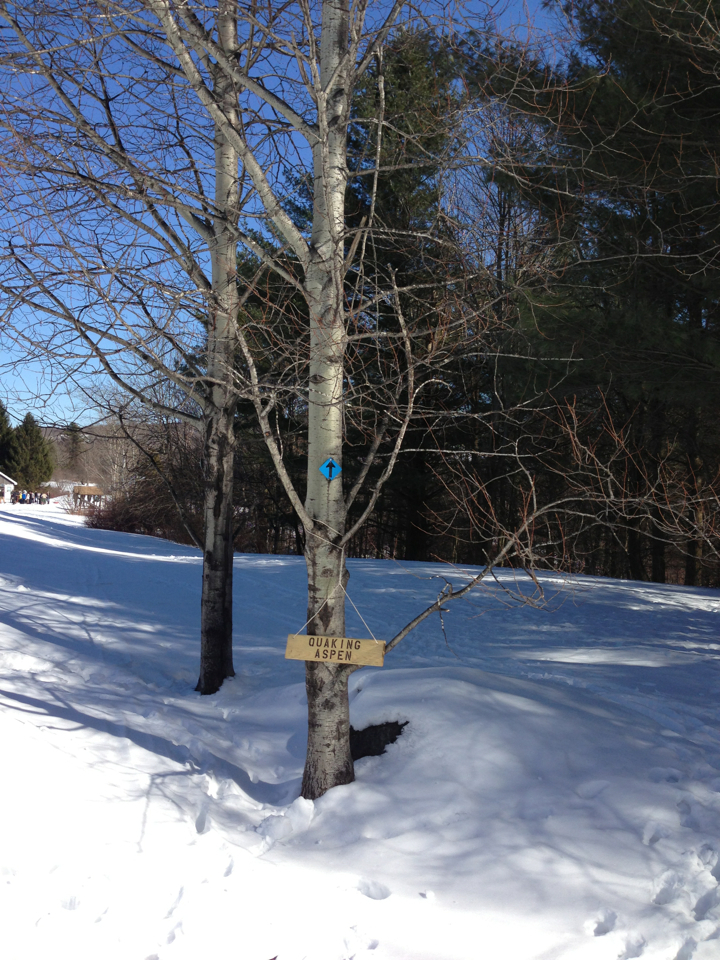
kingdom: Plantae
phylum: Tracheophyta
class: Magnoliopsida
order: Malpighiales
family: Salicaceae
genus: Populus
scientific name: Populus tremuloides
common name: Quaking aspen
